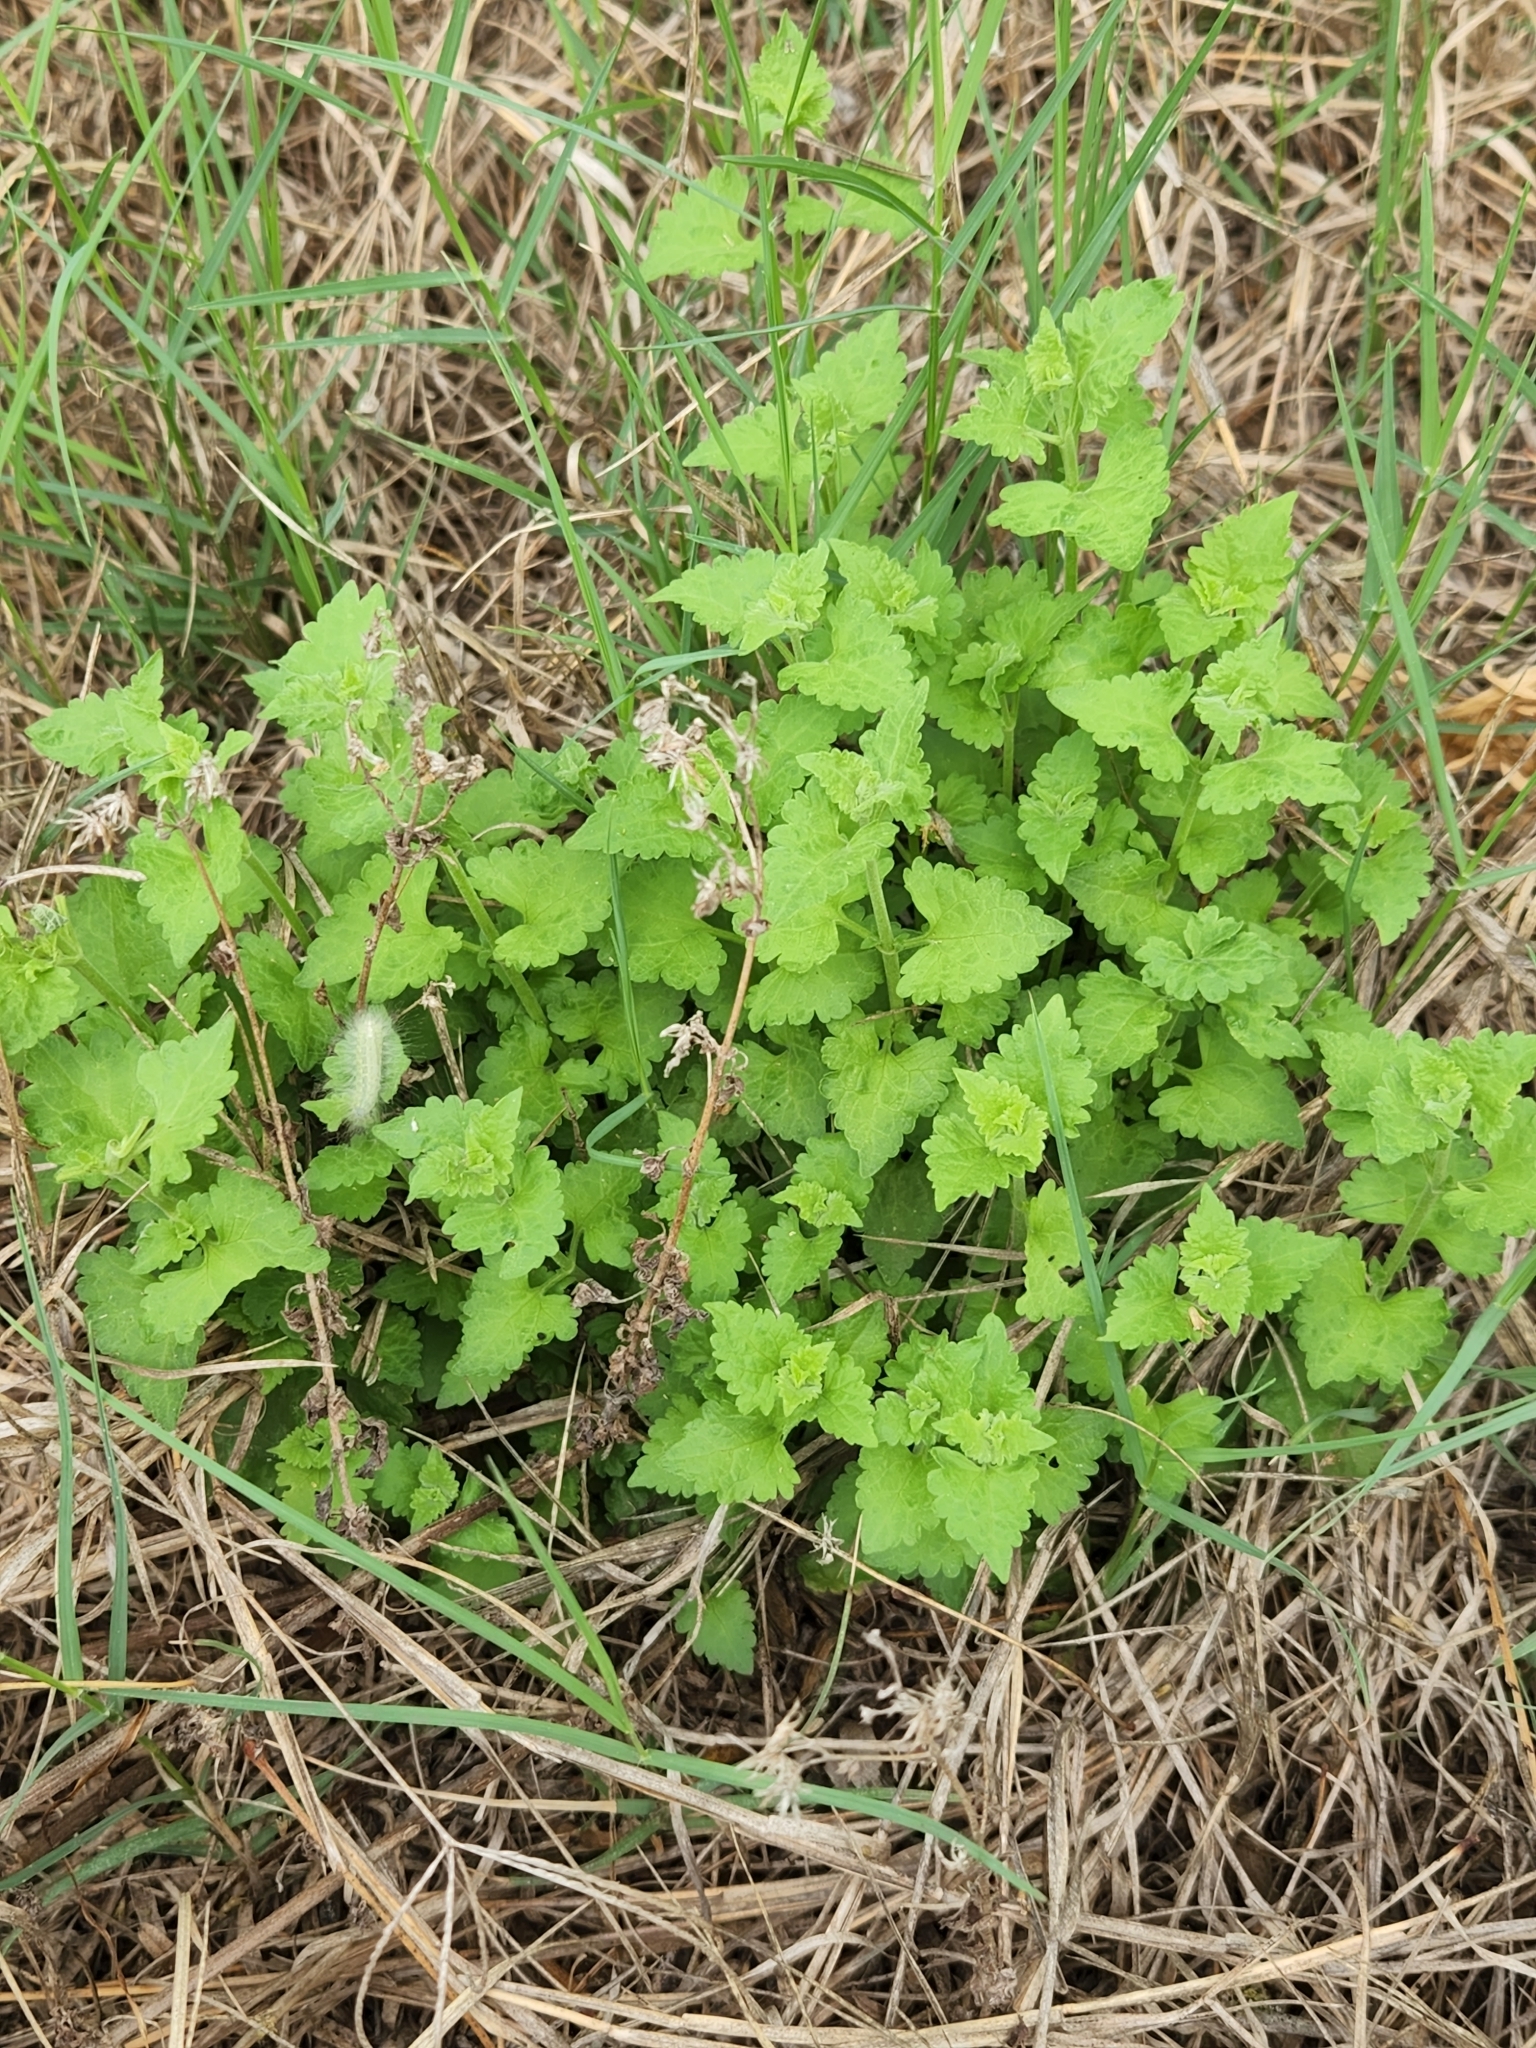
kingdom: Plantae
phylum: Tracheophyta
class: Magnoliopsida
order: Asterales
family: Asteraceae
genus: Fleischmannia
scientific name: Fleischmannia incarnata
